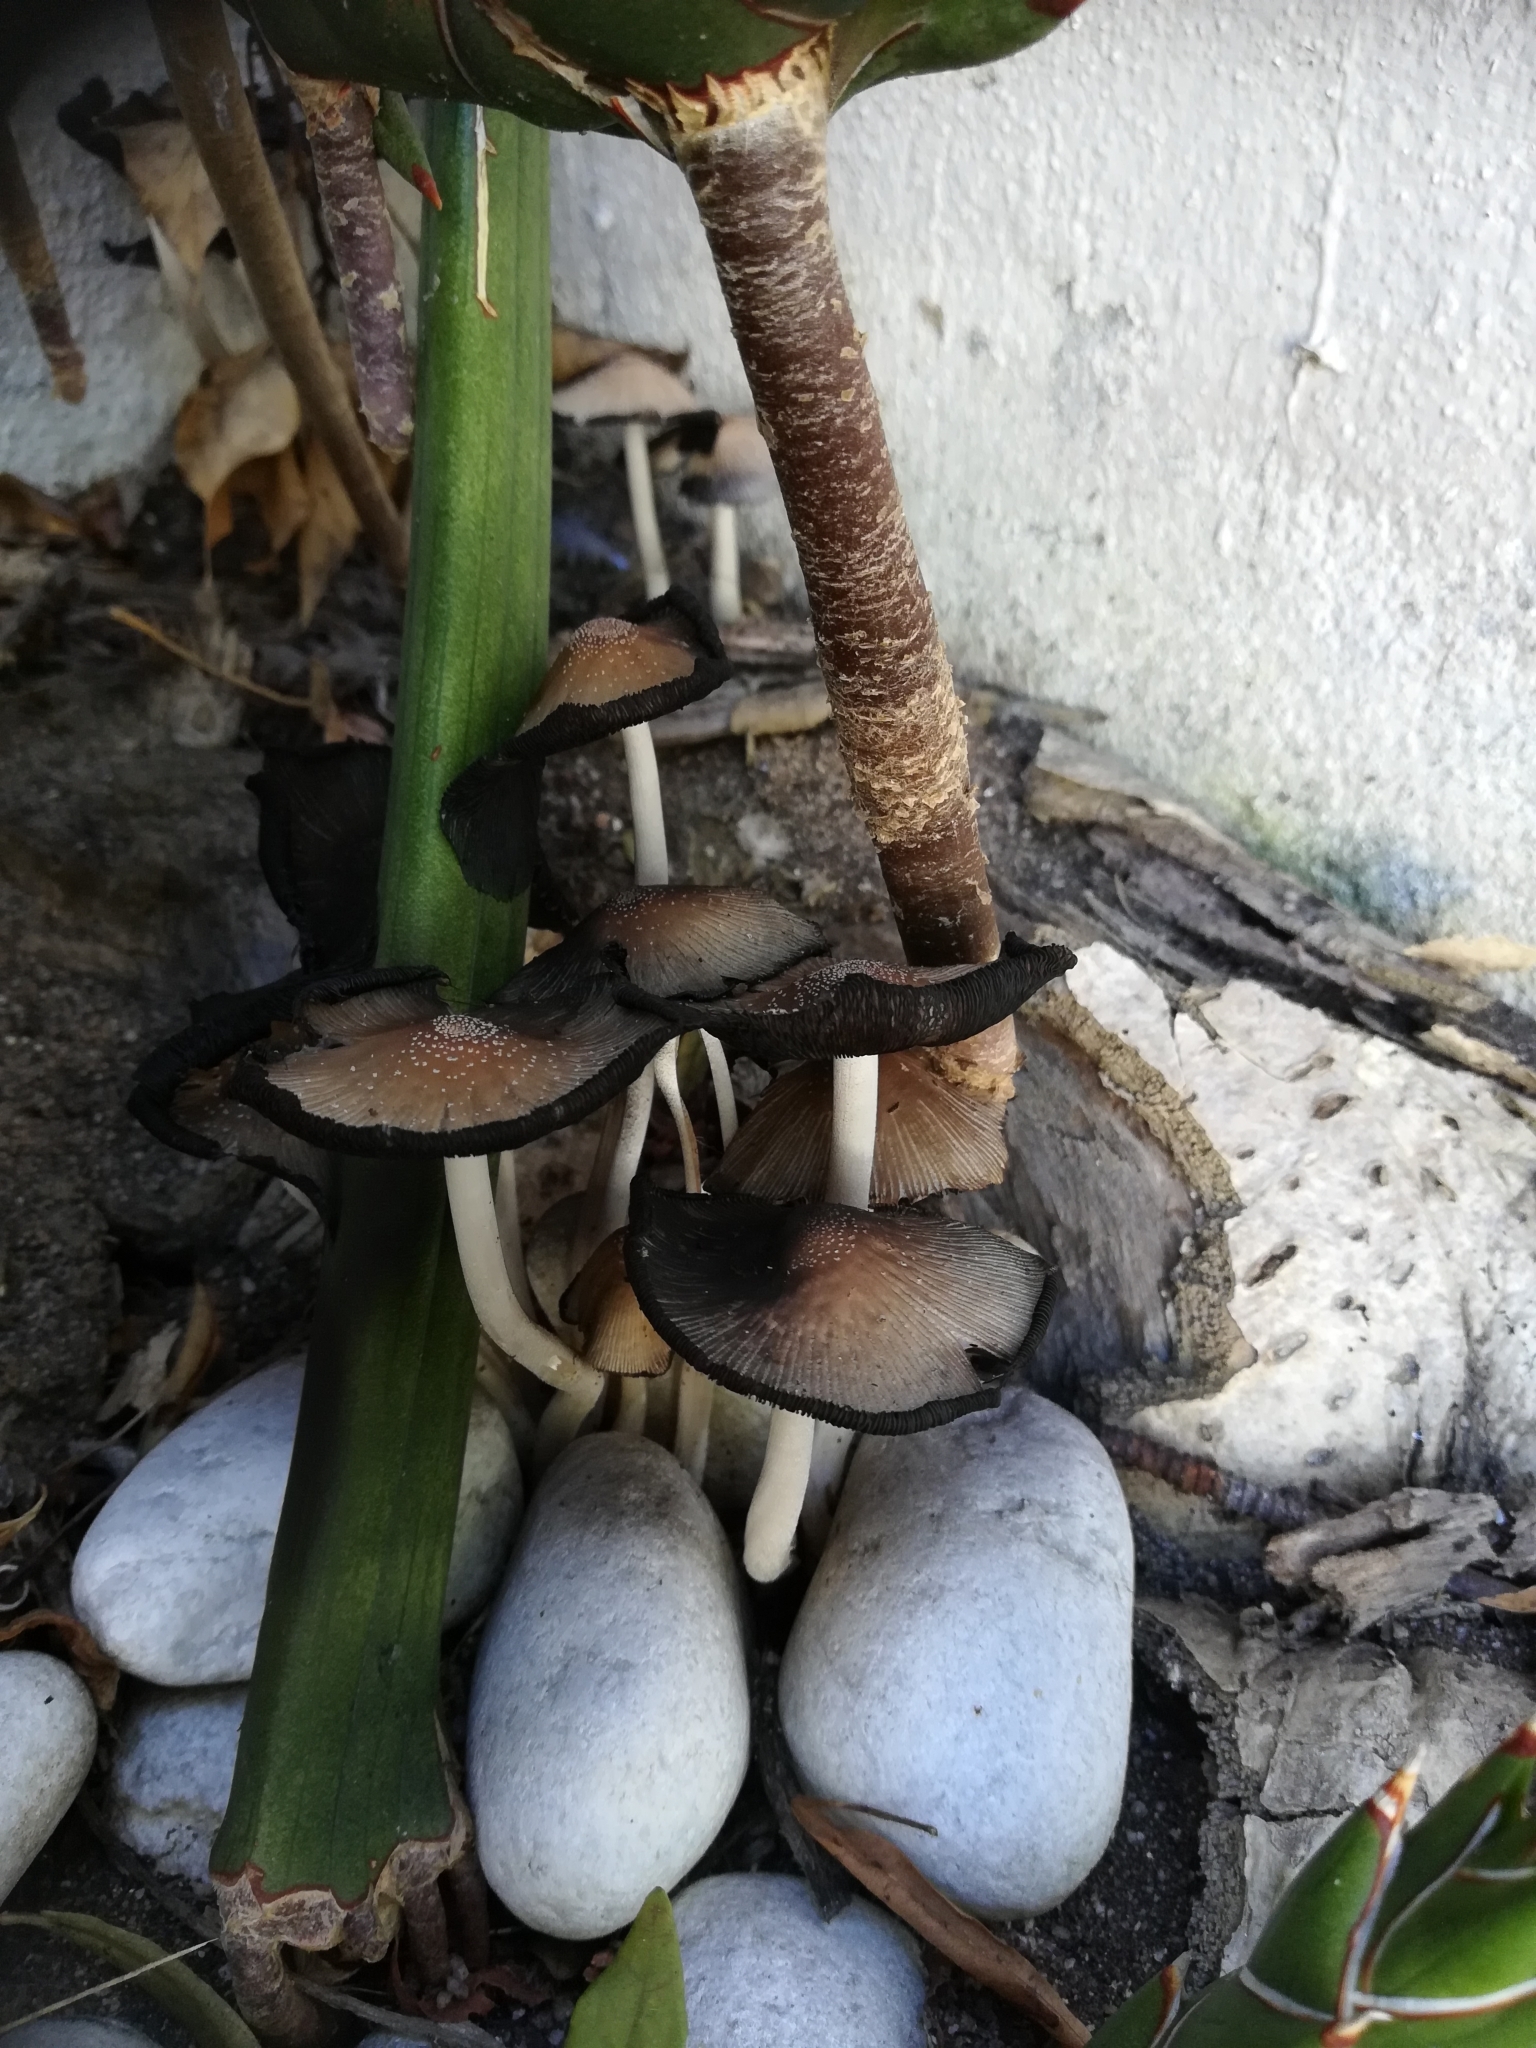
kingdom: Fungi
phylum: Basidiomycota
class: Agaricomycetes
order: Agaricales
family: Psathyrellaceae
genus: Coprinellus
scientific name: Coprinellus micaceus
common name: Glistening ink-cap
